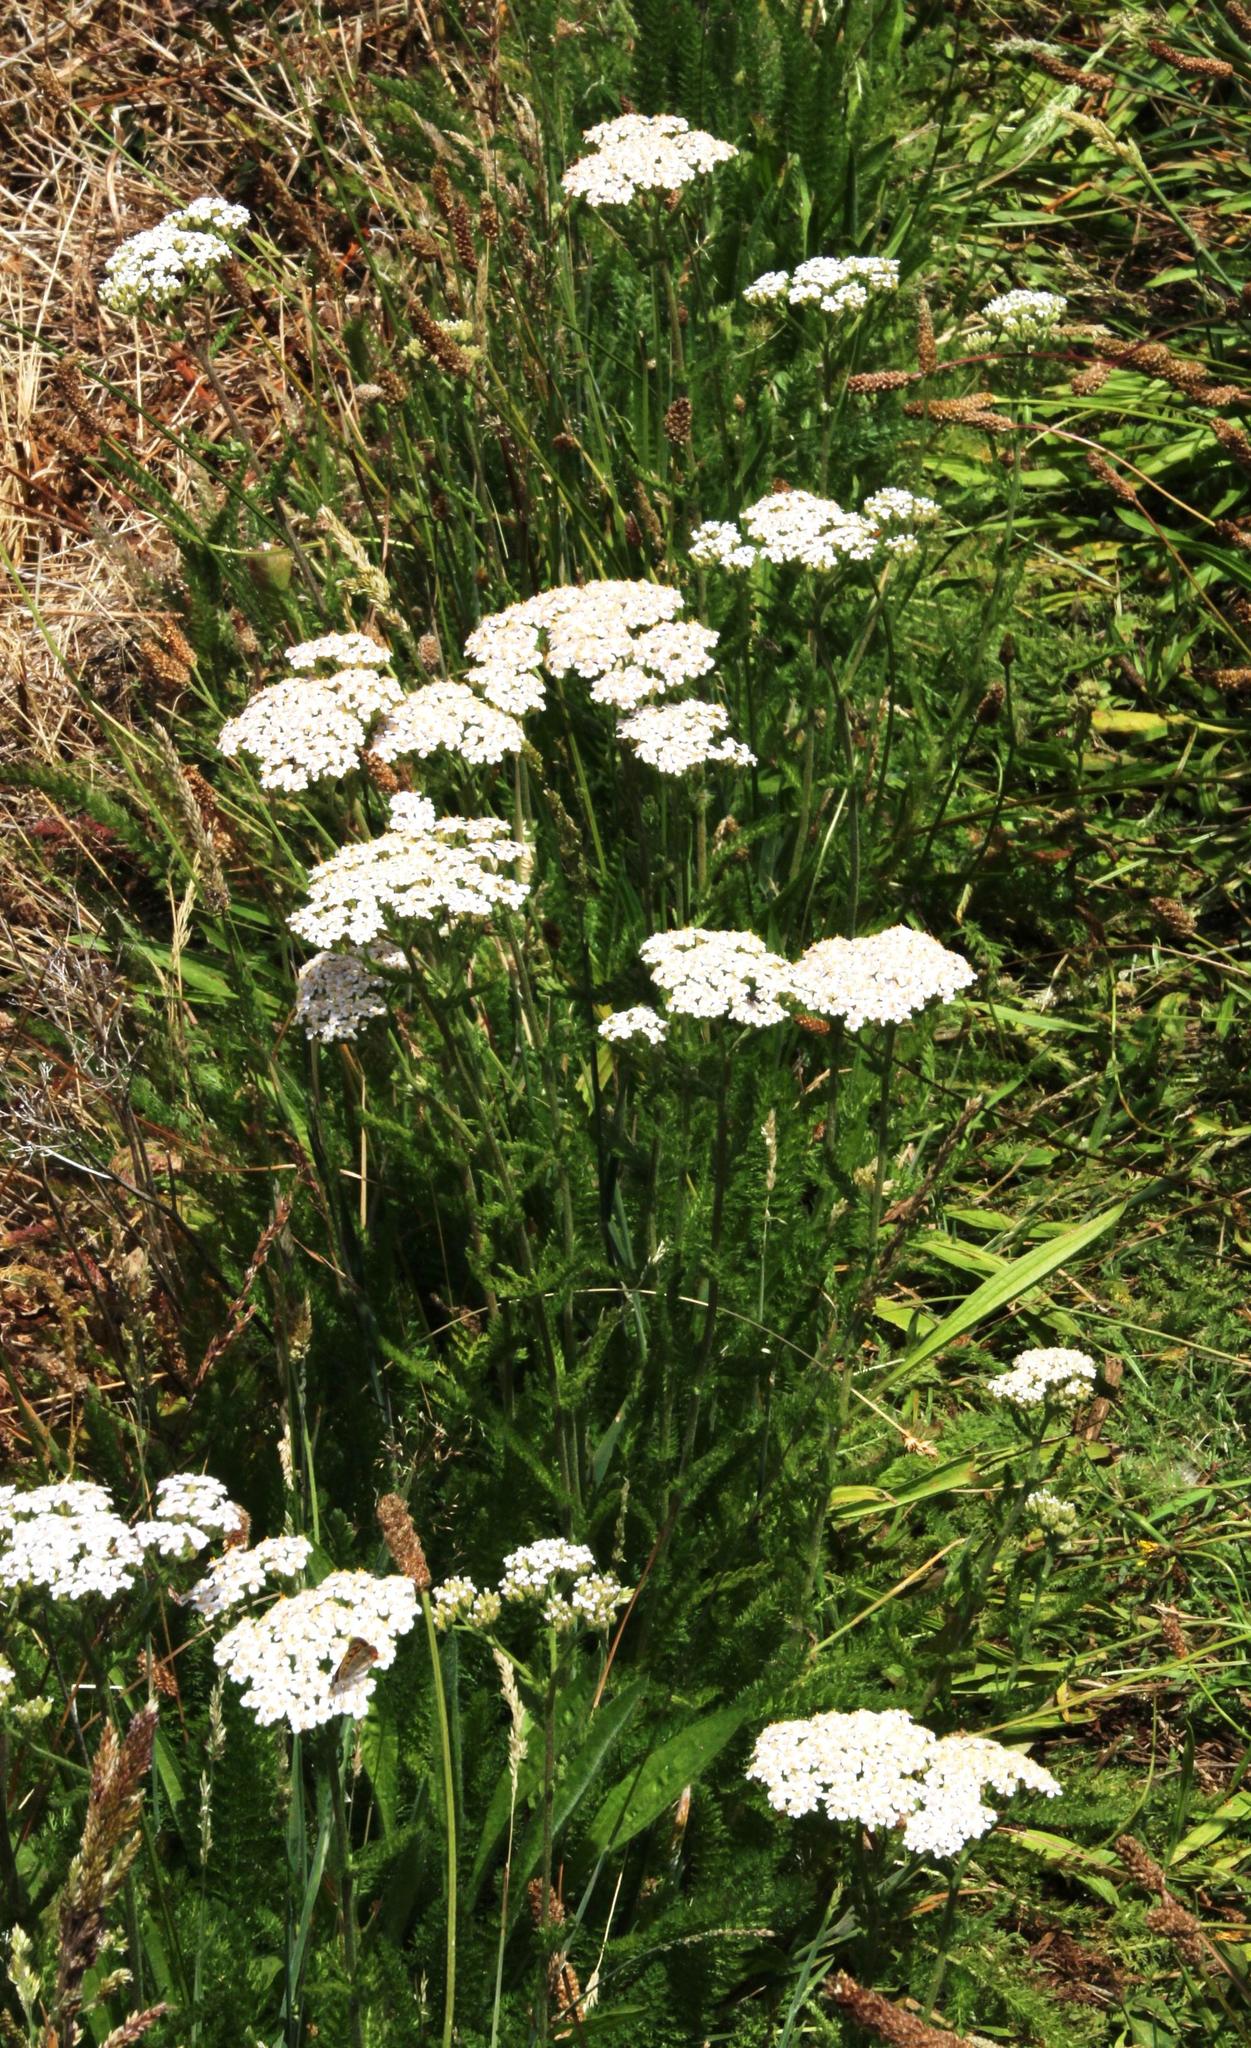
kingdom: Plantae
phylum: Tracheophyta
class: Magnoliopsida
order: Asterales
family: Asteraceae
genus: Achillea
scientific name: Achillea millefolium
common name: Yarrow
